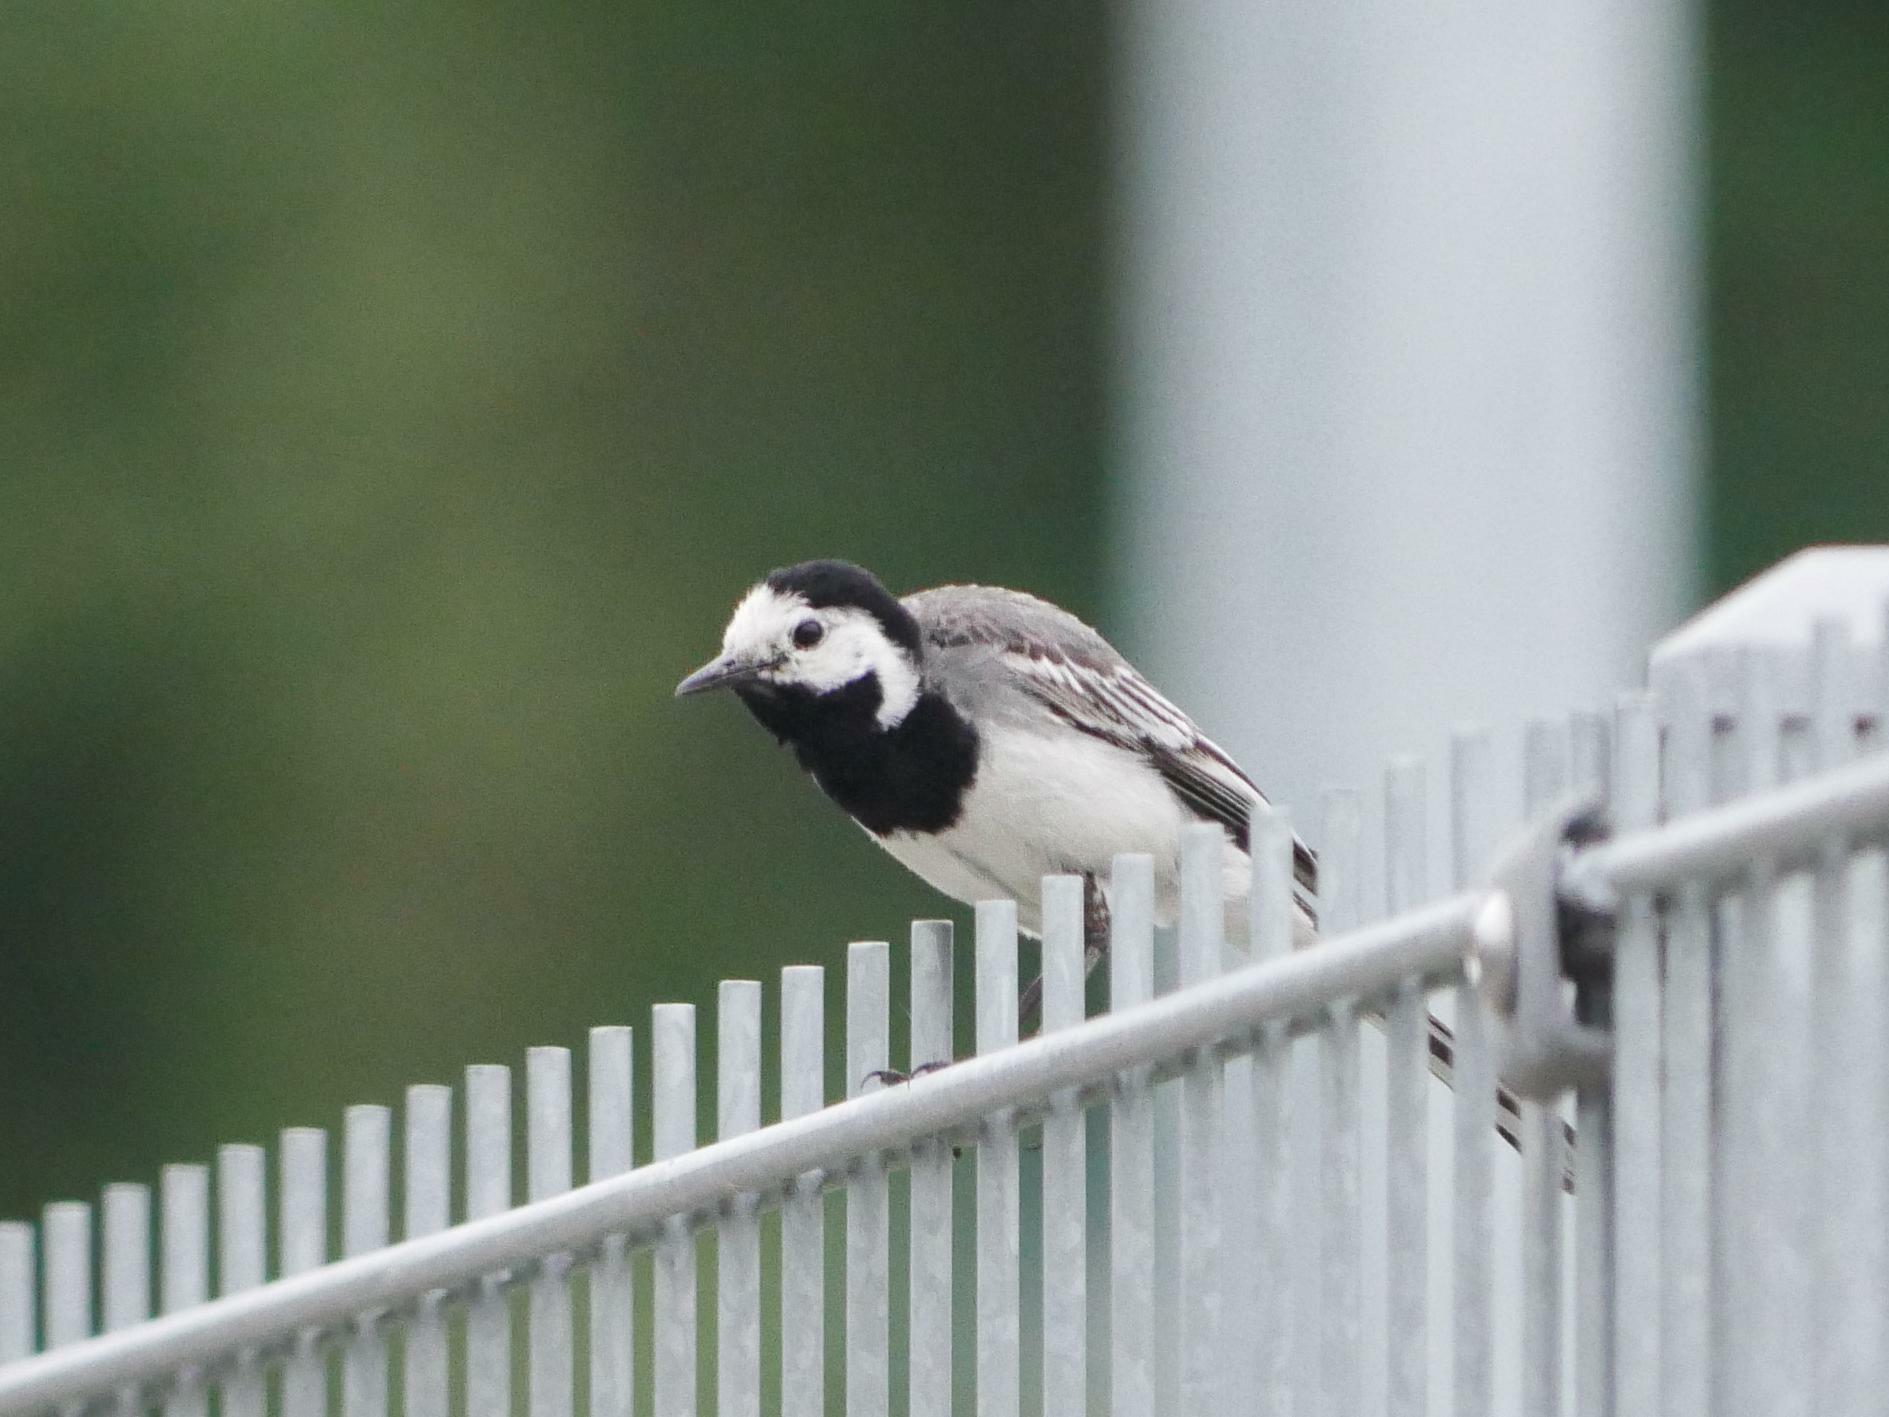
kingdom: Animalia
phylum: Chordata
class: Aves
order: Passeriformes
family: Motacillidae
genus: Motacilla
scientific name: Motacilla alba
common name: White wagtail
